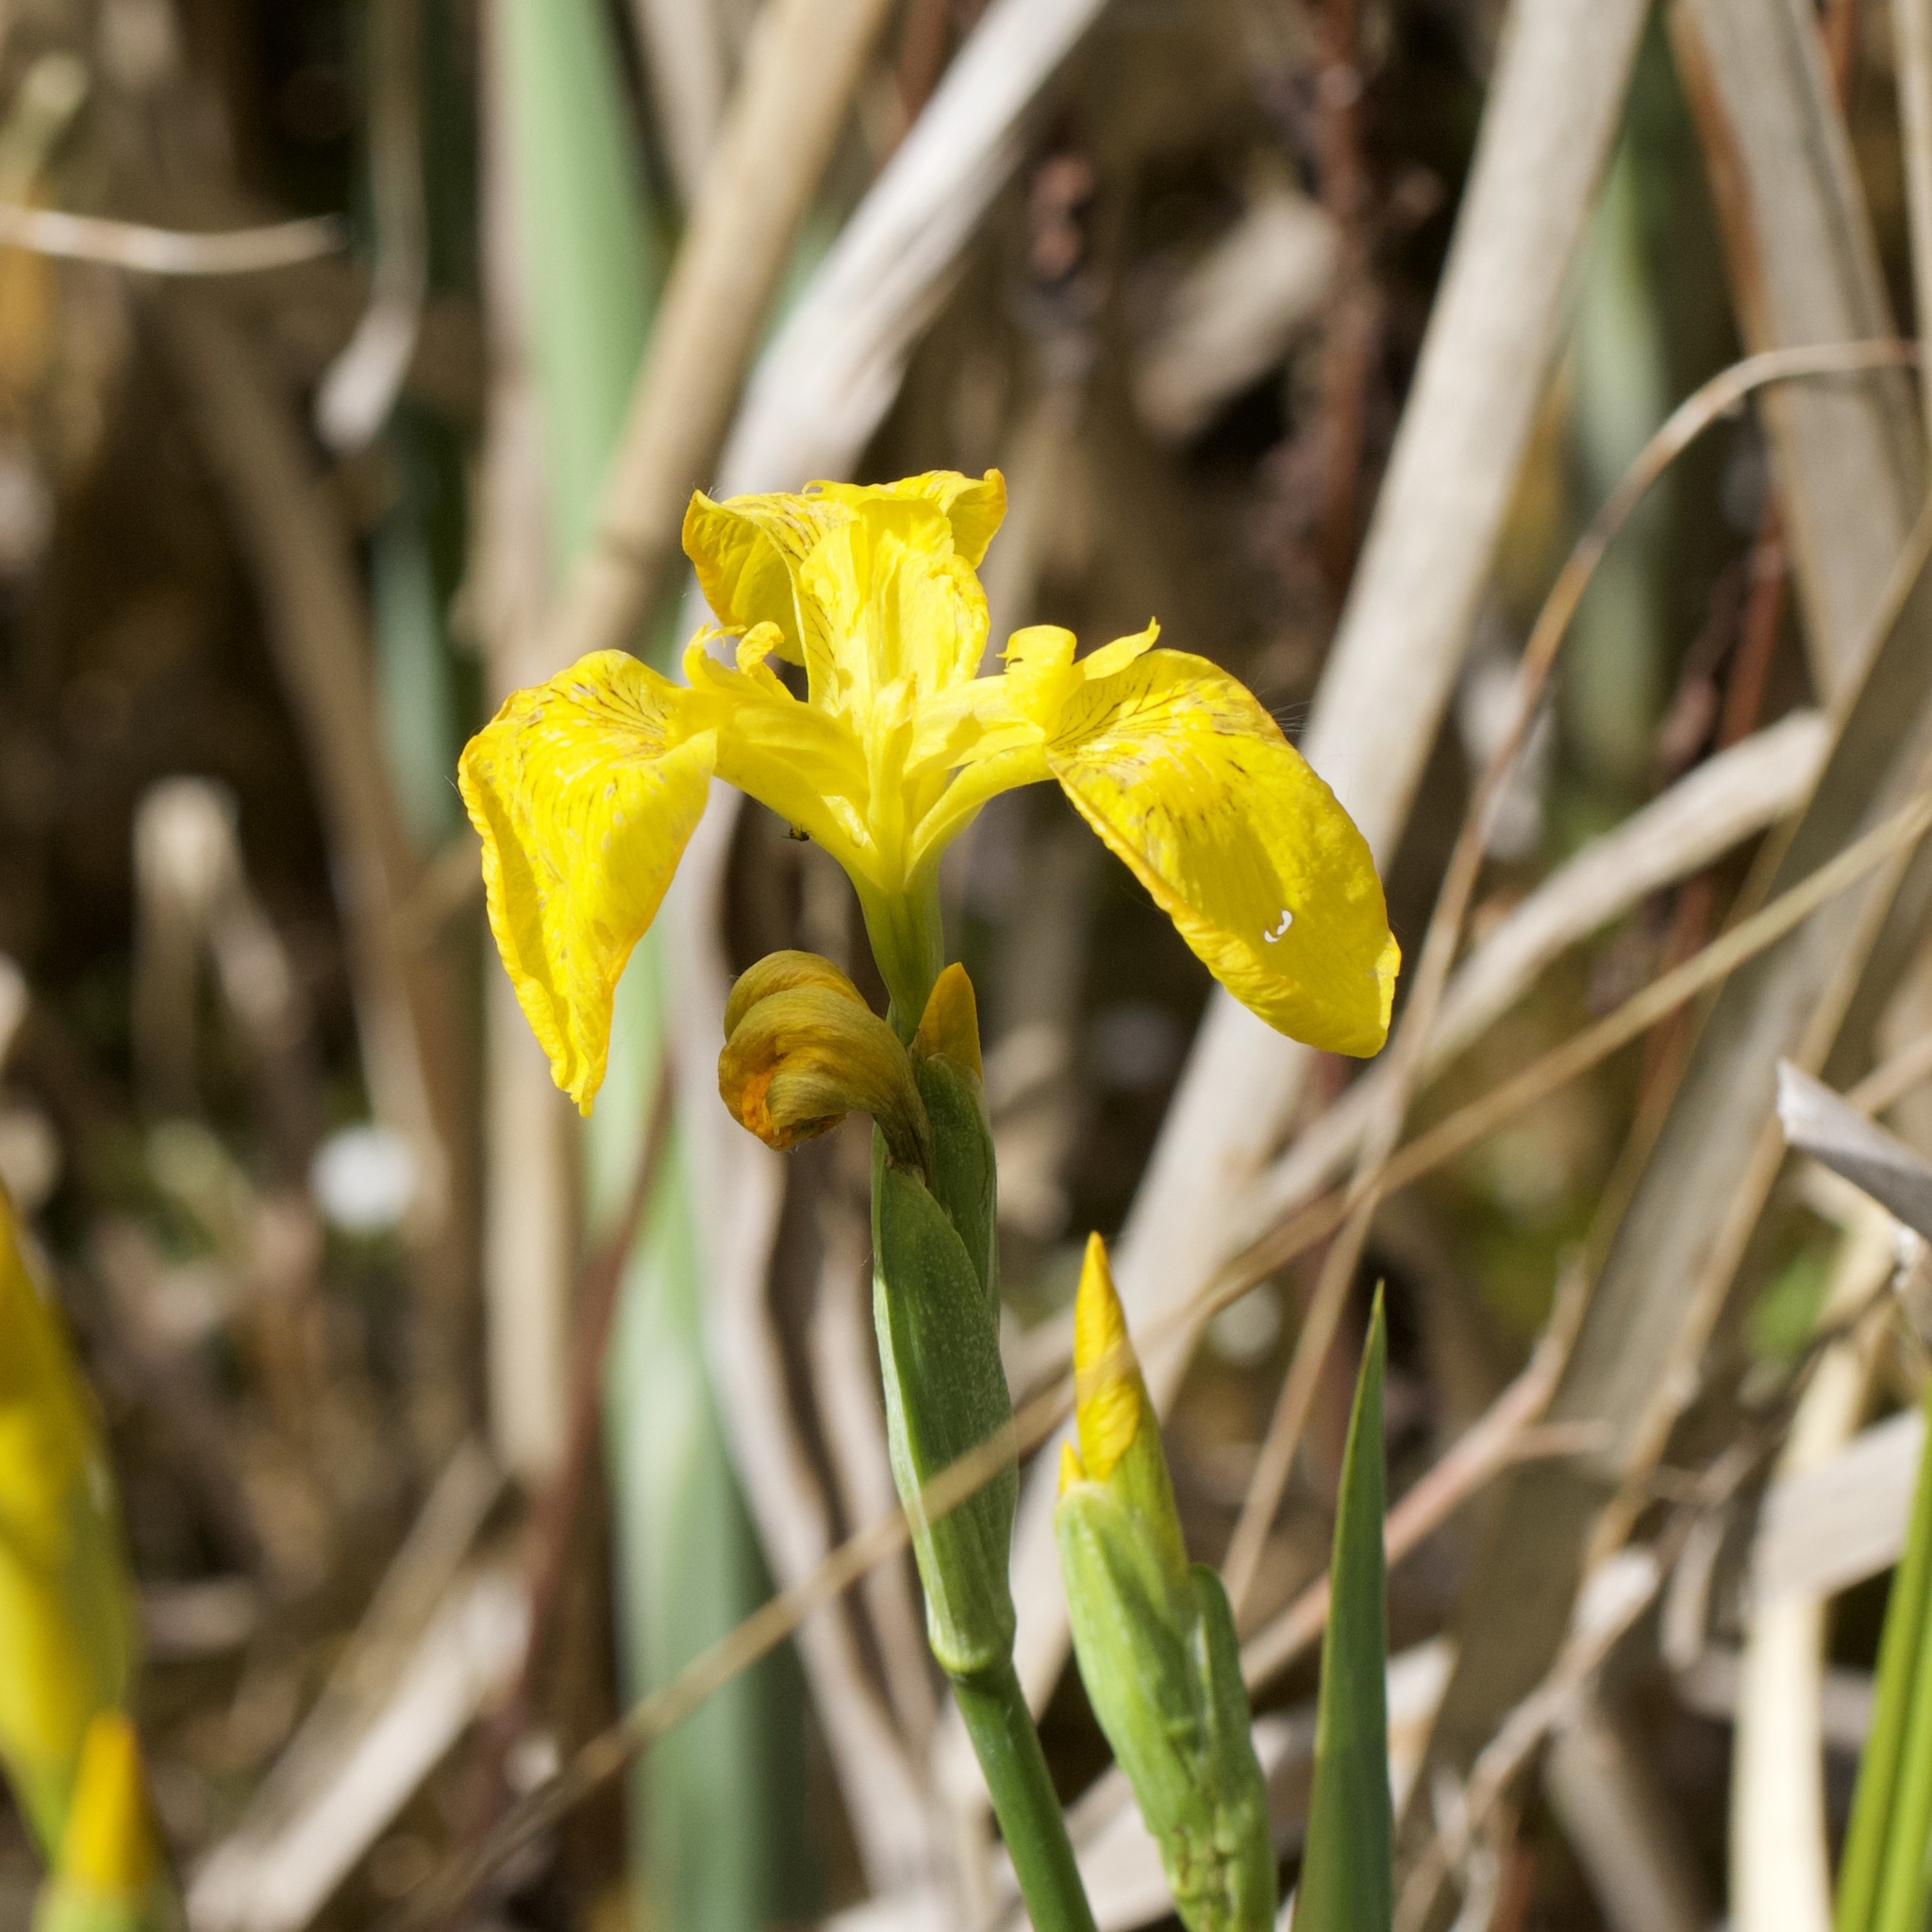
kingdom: Plantae
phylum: Tracheophyta
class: Liliopsida
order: Asparagales
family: Iridaceae
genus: Iris
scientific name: Iris pseudacorus
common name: Yellow flag
